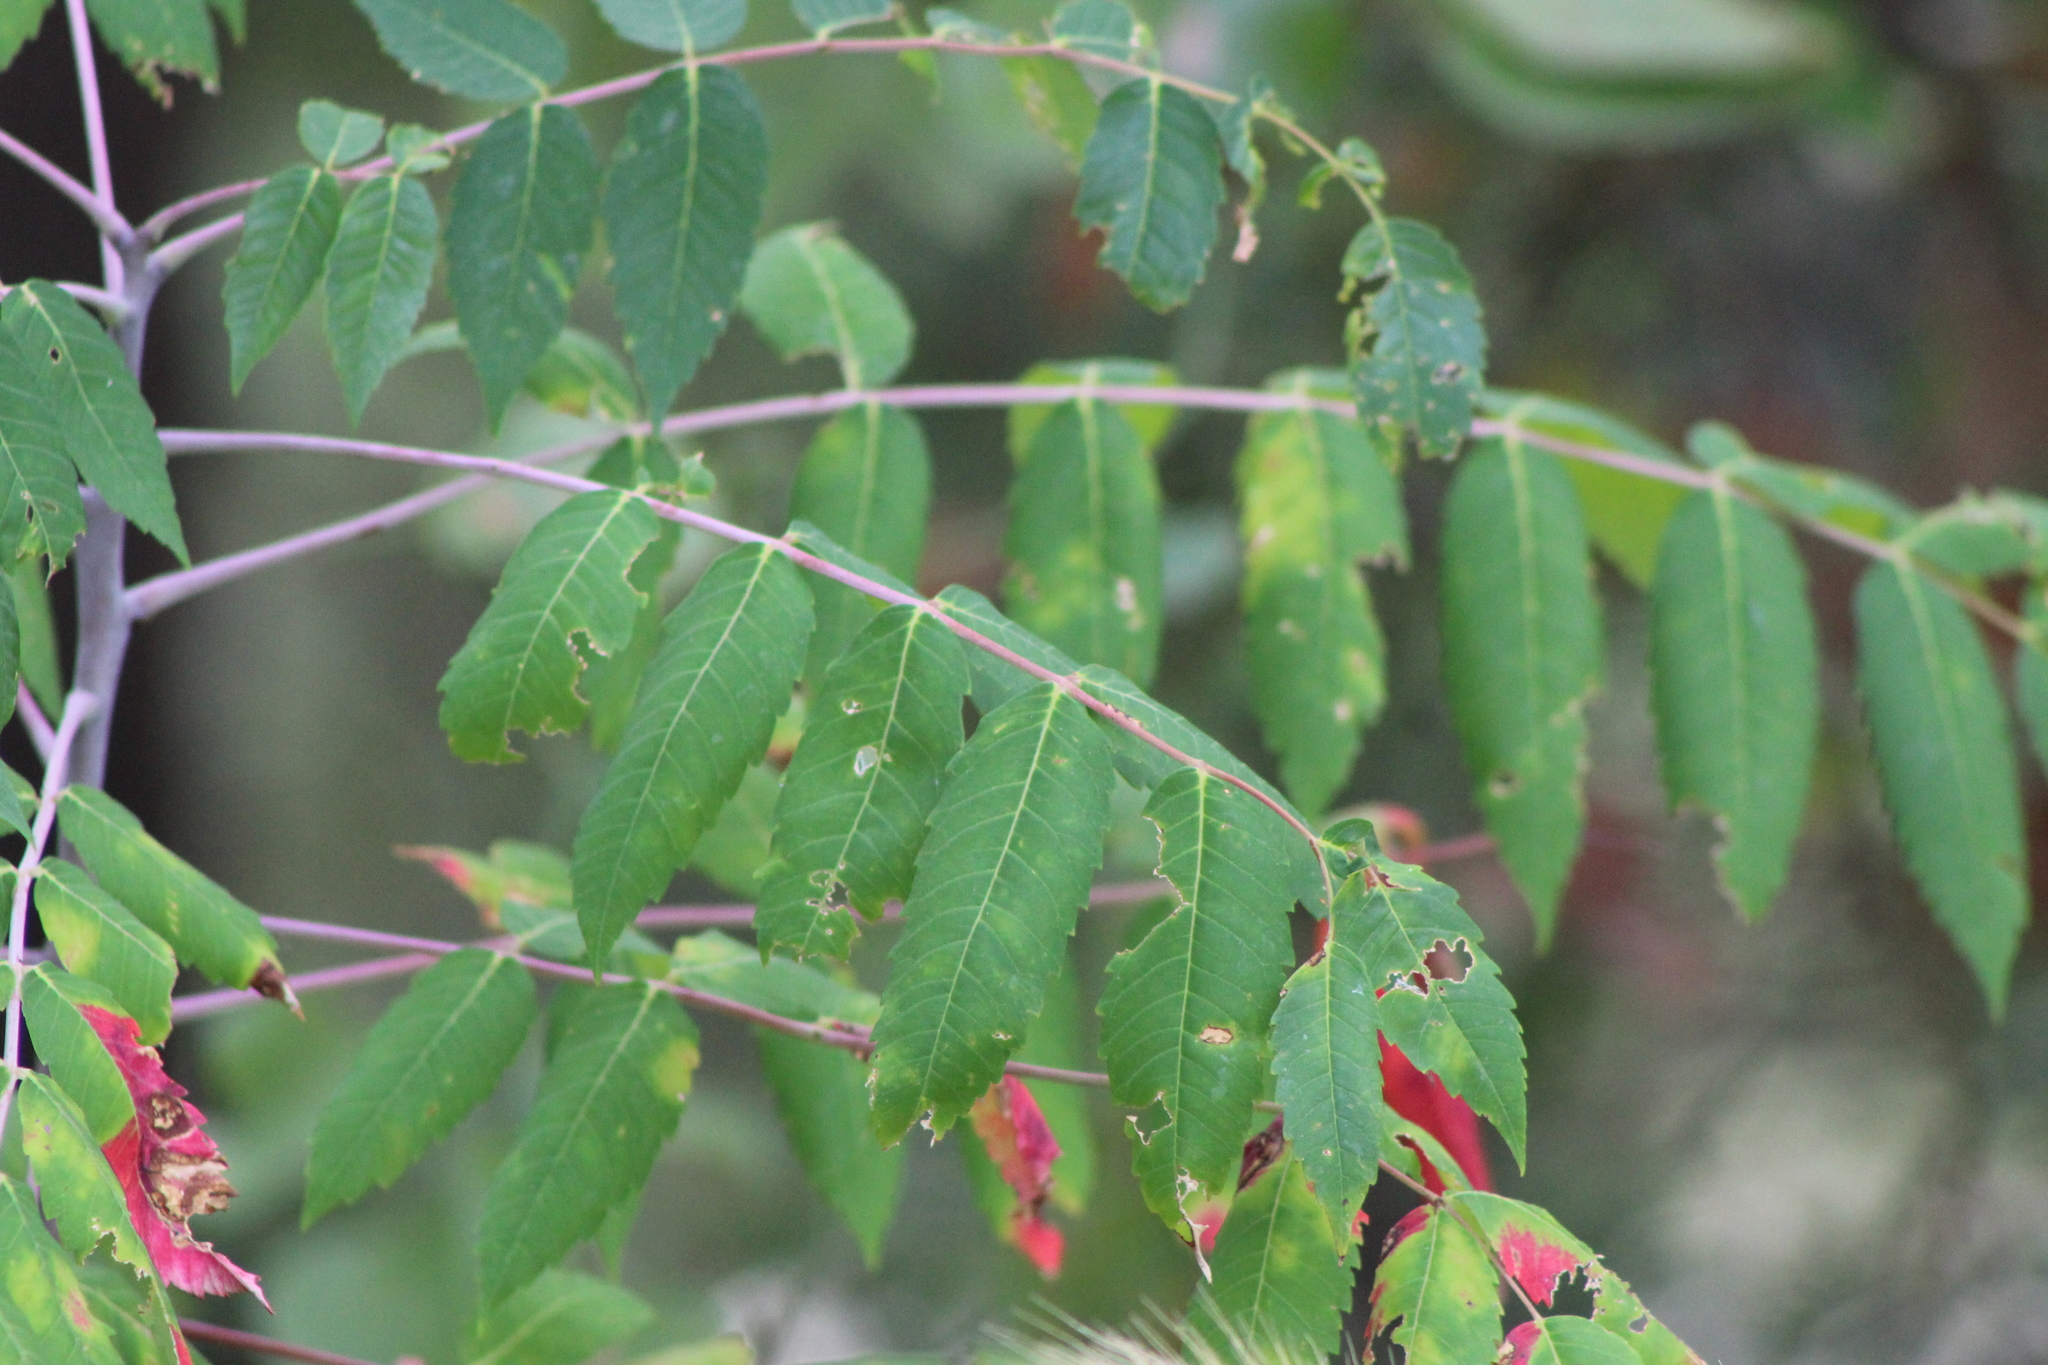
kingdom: Plantae
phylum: Tracheophyta
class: Magnoliopsida
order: Sapindales
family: Anacardiaceae
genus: Rhus
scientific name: Rhus glabra
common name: Scarlet sumac
